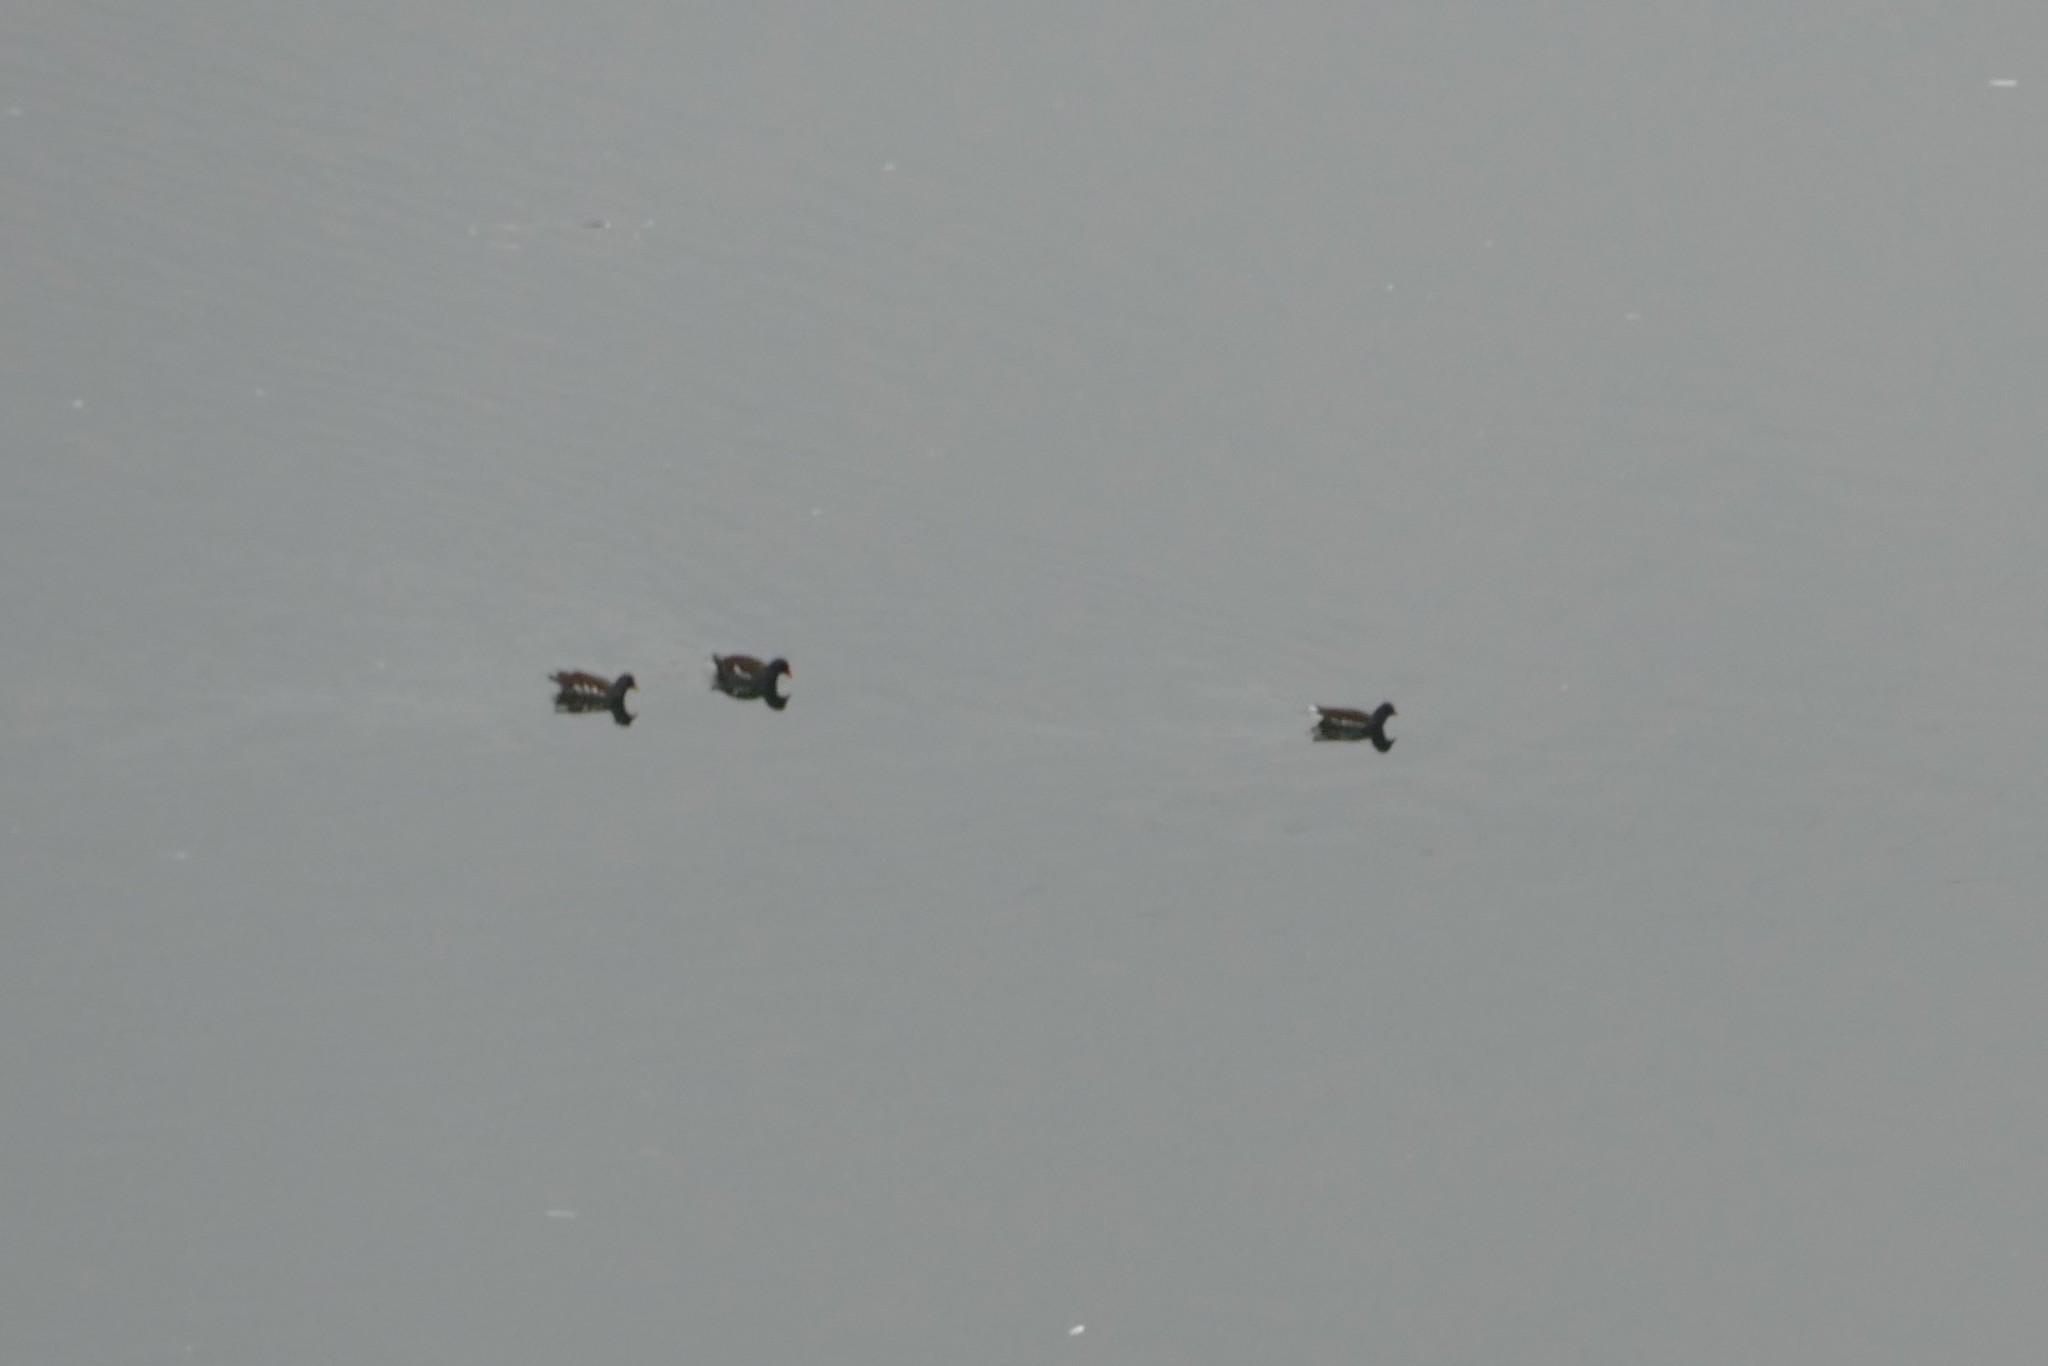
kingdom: Animalia
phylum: Chordata
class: Aves
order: Gruiformes
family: Rallidae
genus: Gallinula
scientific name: Gallinula chloropus
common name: Common moorhen
